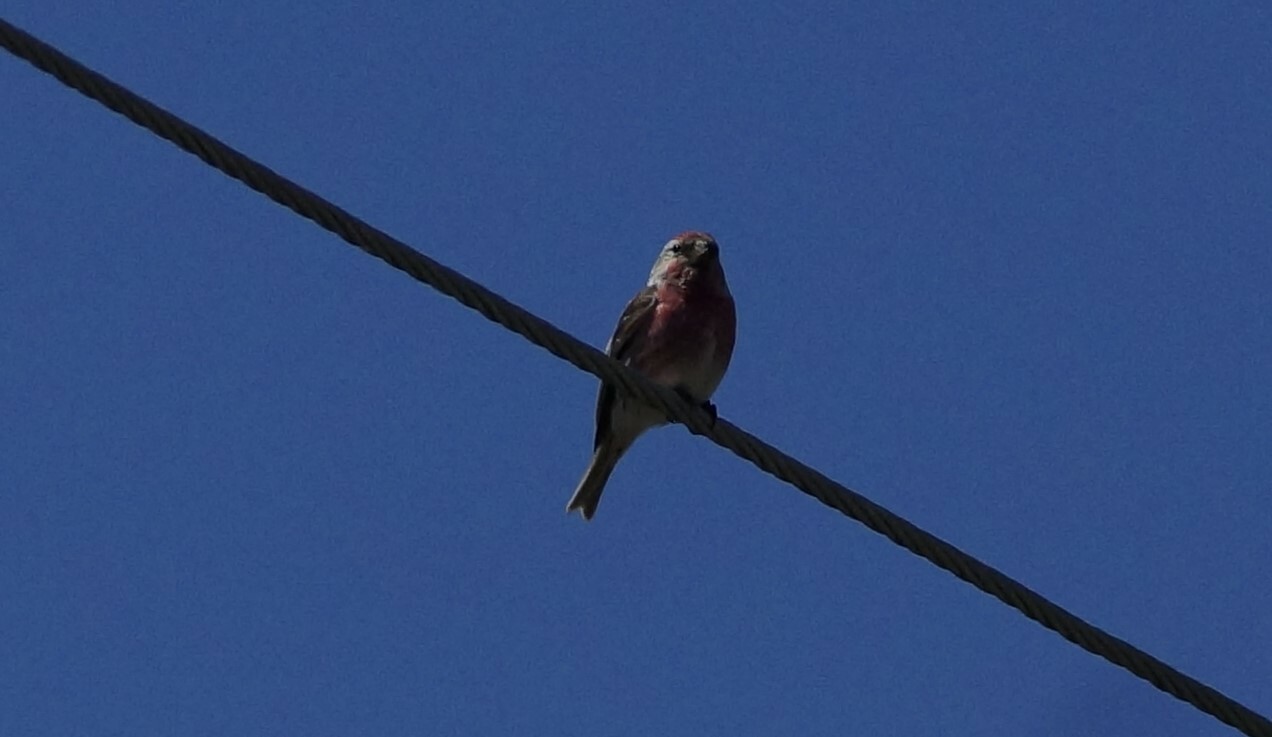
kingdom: Animalia
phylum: Chordata
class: Aves
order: Passeriformes
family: Fringillidae
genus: Acanthis
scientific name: Acanthis flammea
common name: Common redpoll
